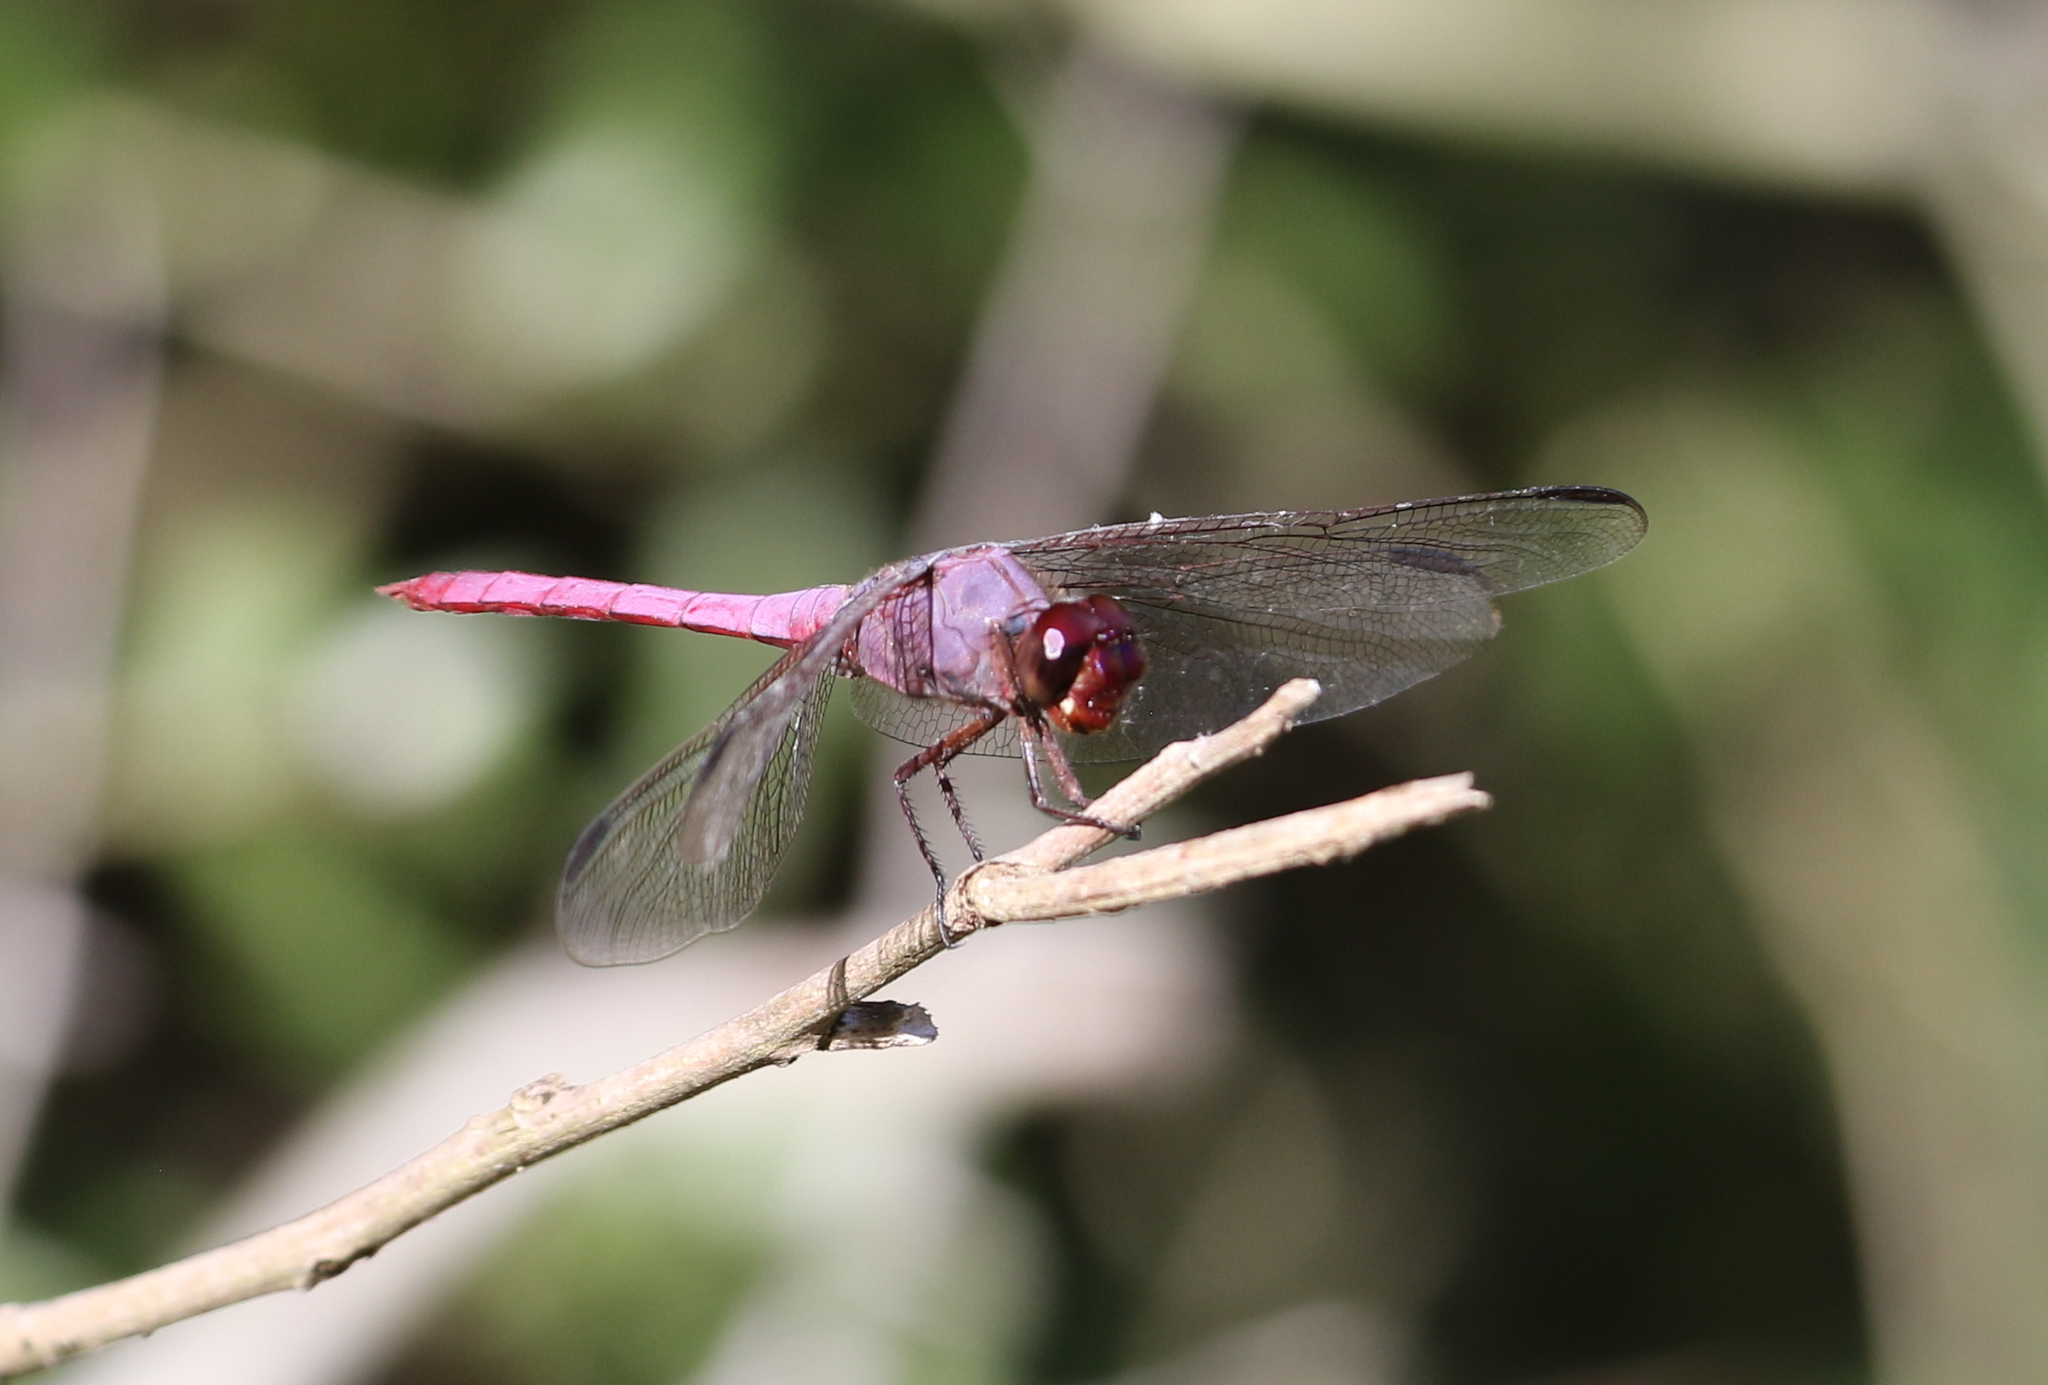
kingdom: Animalia
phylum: Arthropoda
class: Insecta
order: Odonata
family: Libellulidae
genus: Orthemis
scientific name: Orthemis ferruginea
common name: Roseate skimmer
